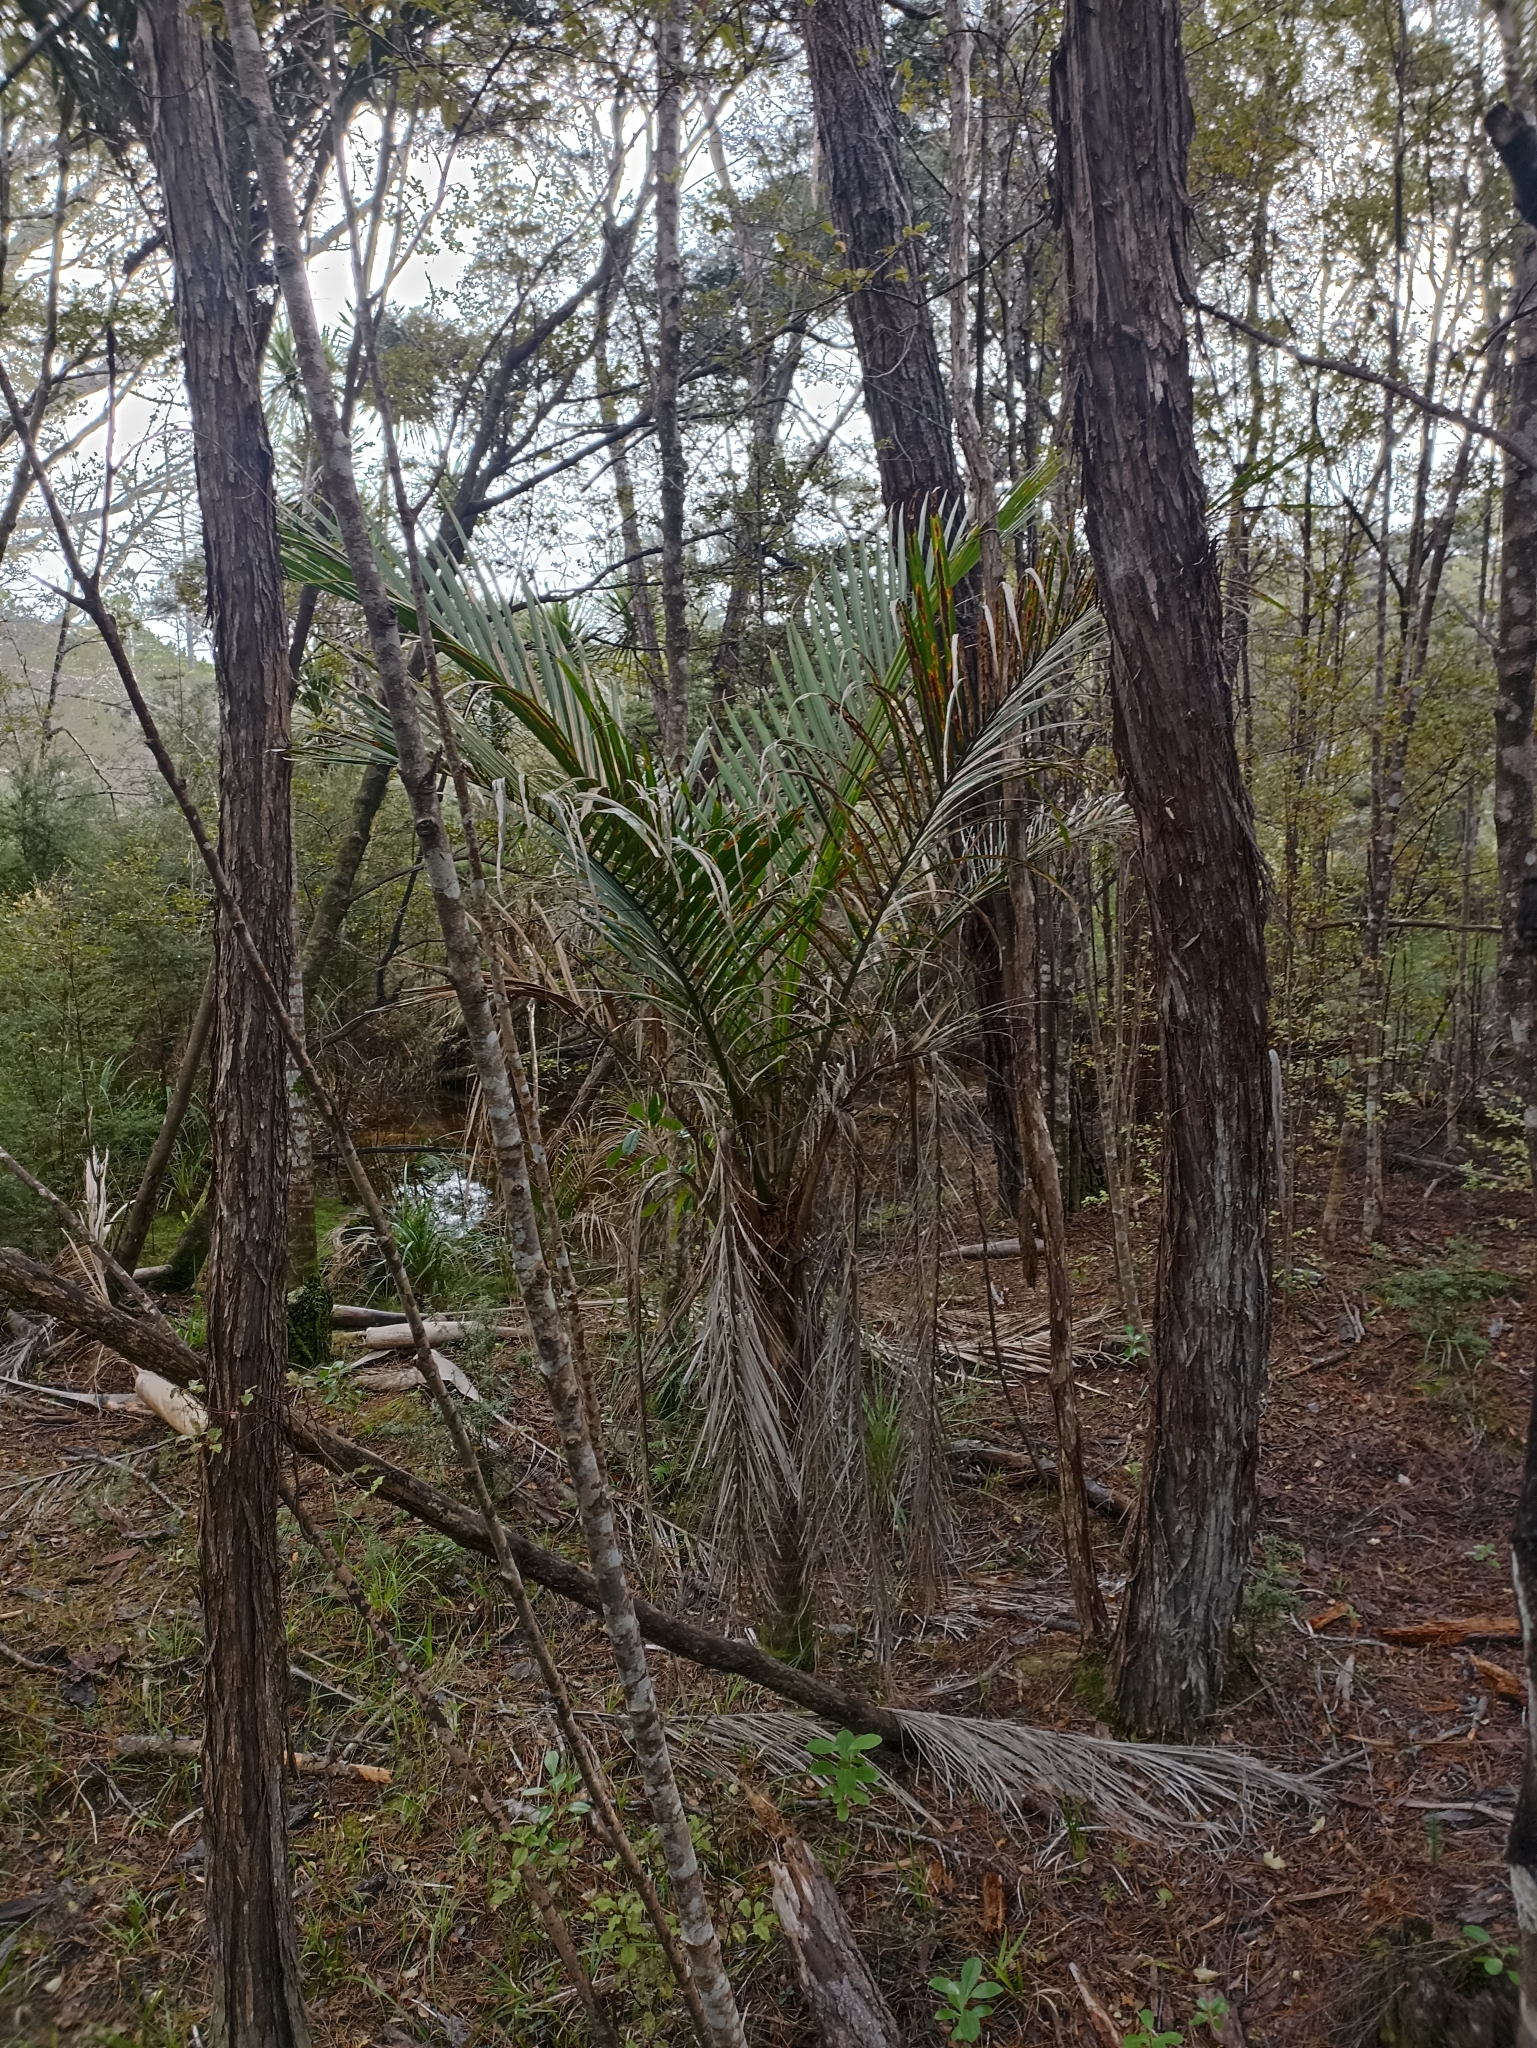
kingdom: Plantae
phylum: Tracheophyta
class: Liliopsida
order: Arecales
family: Arecaceae
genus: Rhopalostylis
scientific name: Rhopalostylis sapida
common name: Feather-duster palm
